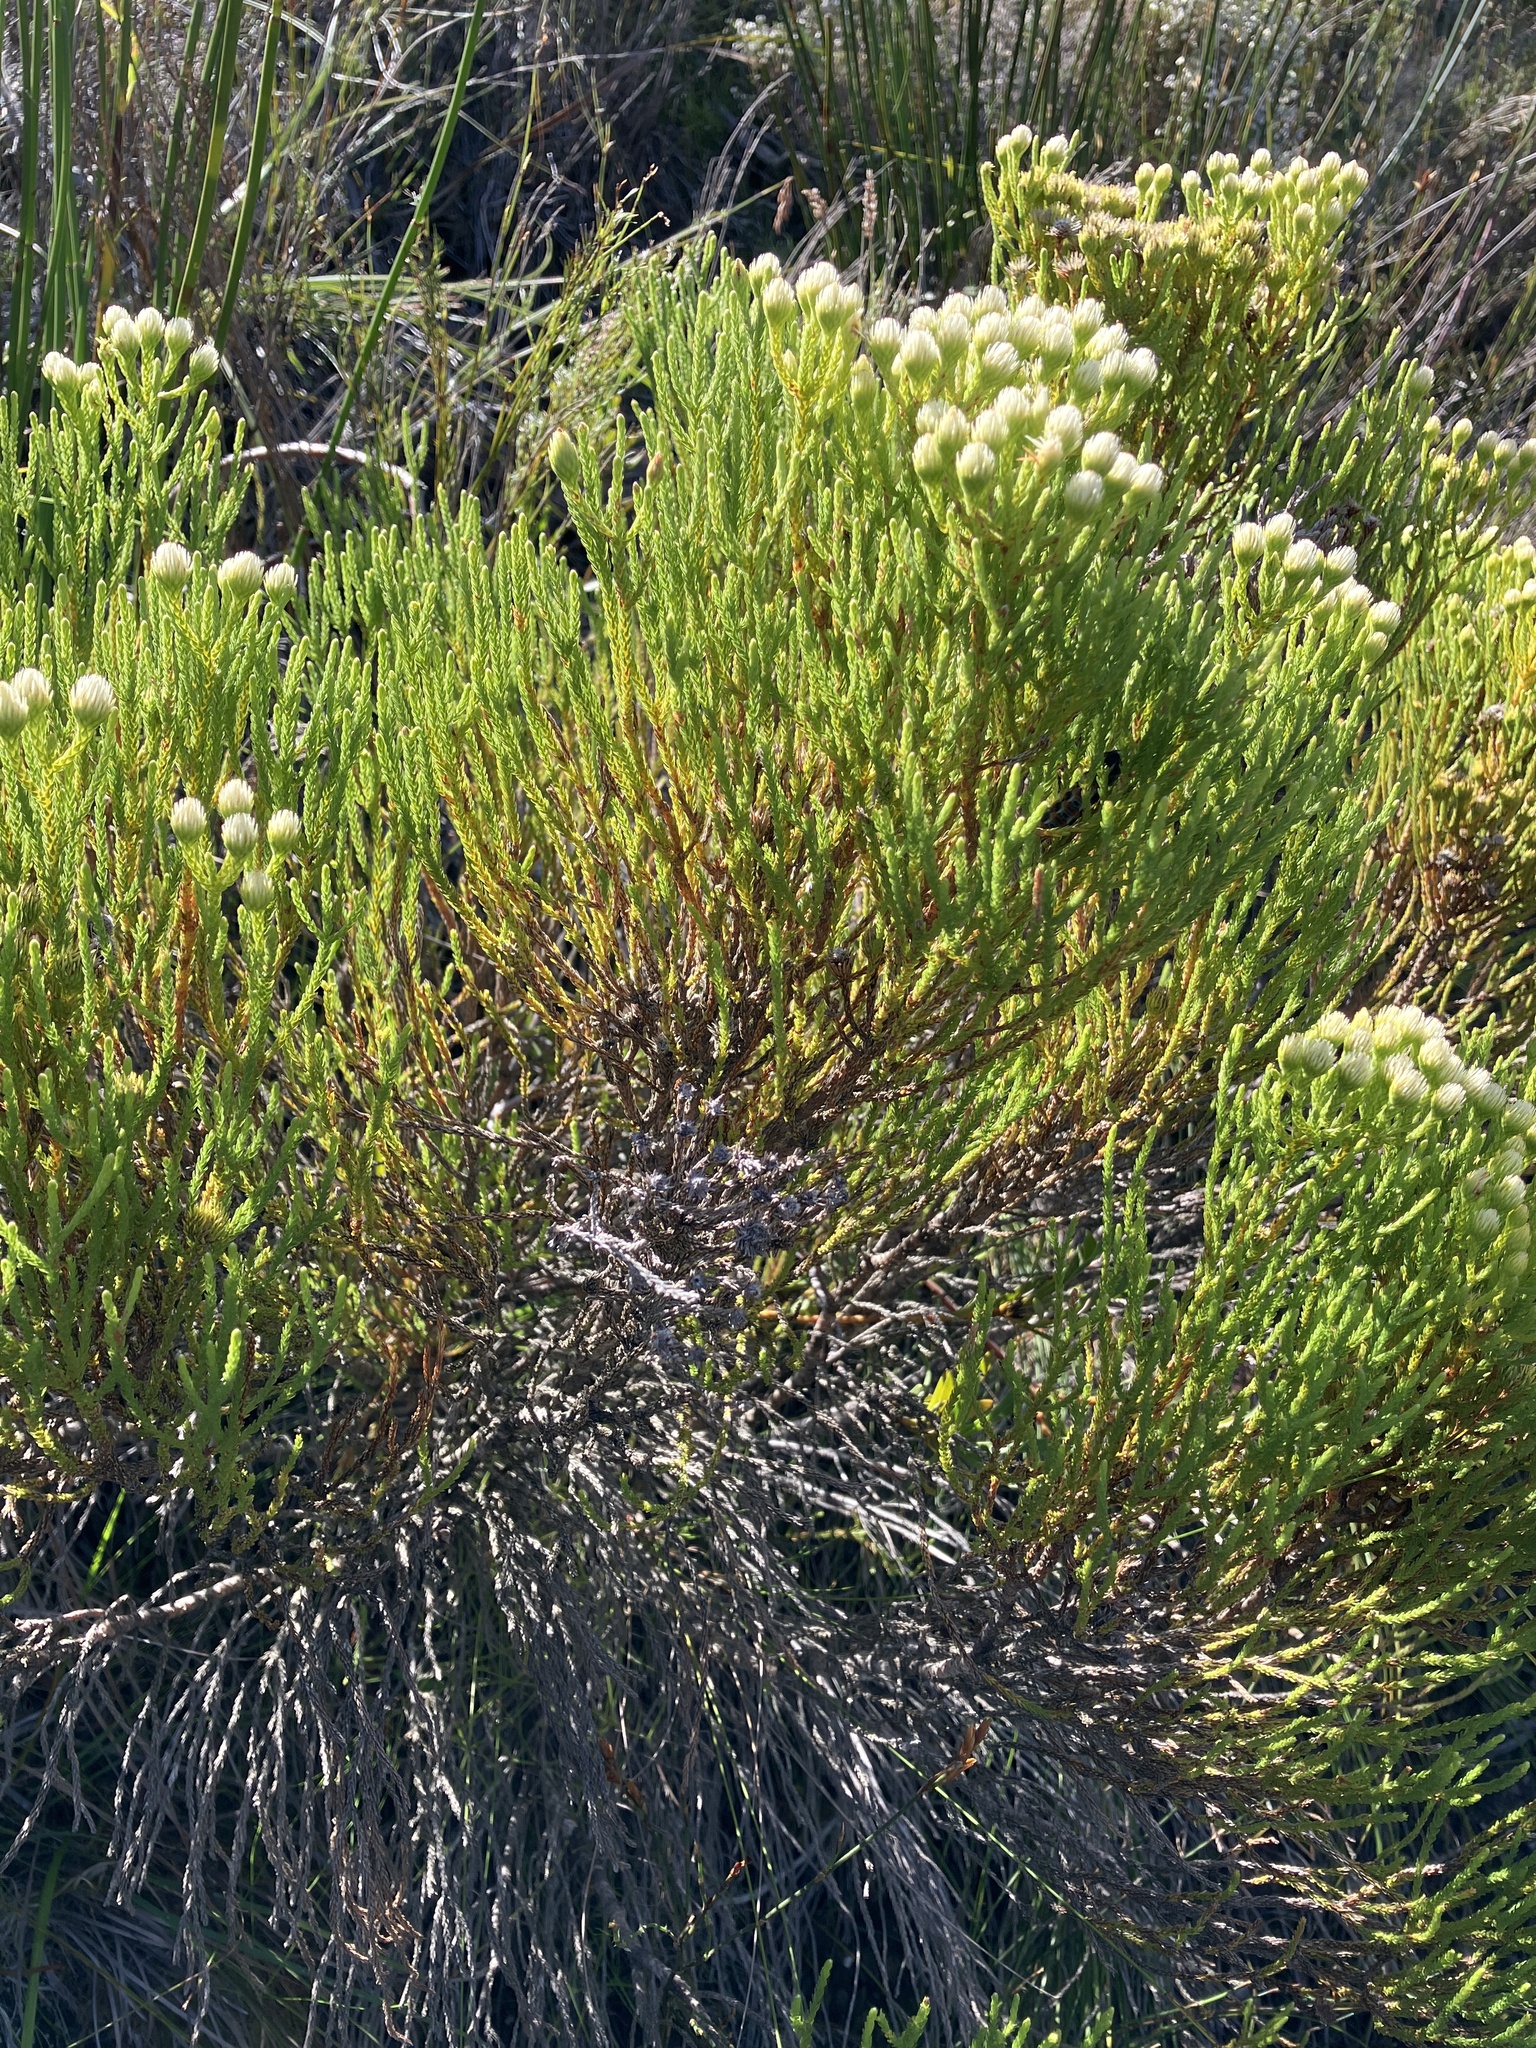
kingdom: Plantae
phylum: Tracheophyta
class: Magnoliopsida
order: Bruniales
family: Bruniaceae
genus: Brunia
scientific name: Brunia paleacea
